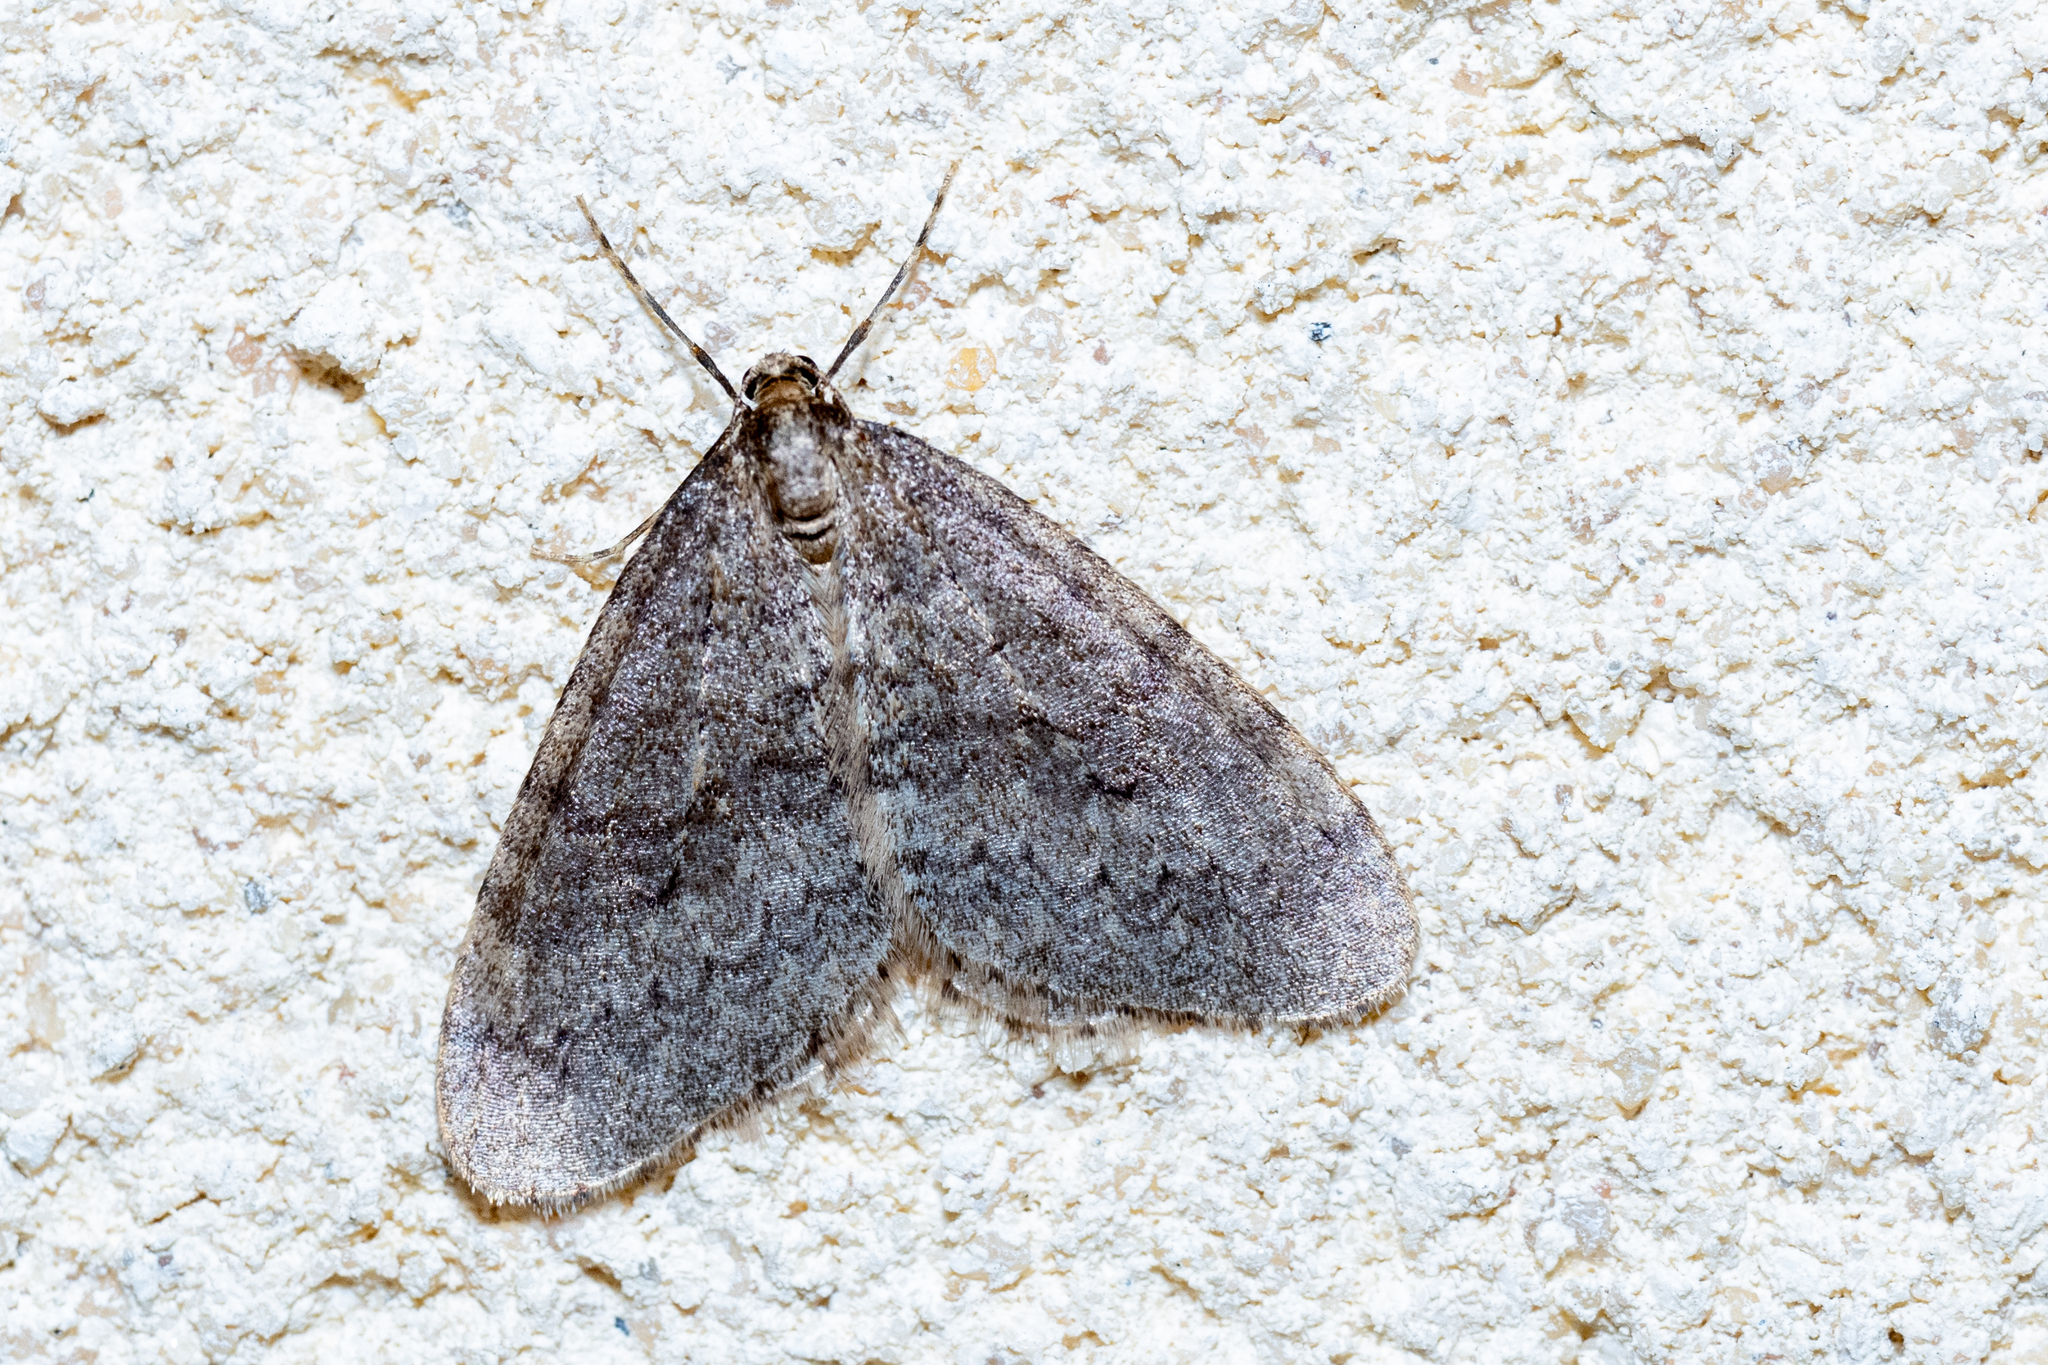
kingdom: Animalia
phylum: Arthropoda
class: Insecta
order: Lepidoptera
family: Geometridae
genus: Operophtera
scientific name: Operophtera brumata
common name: Winter moth
